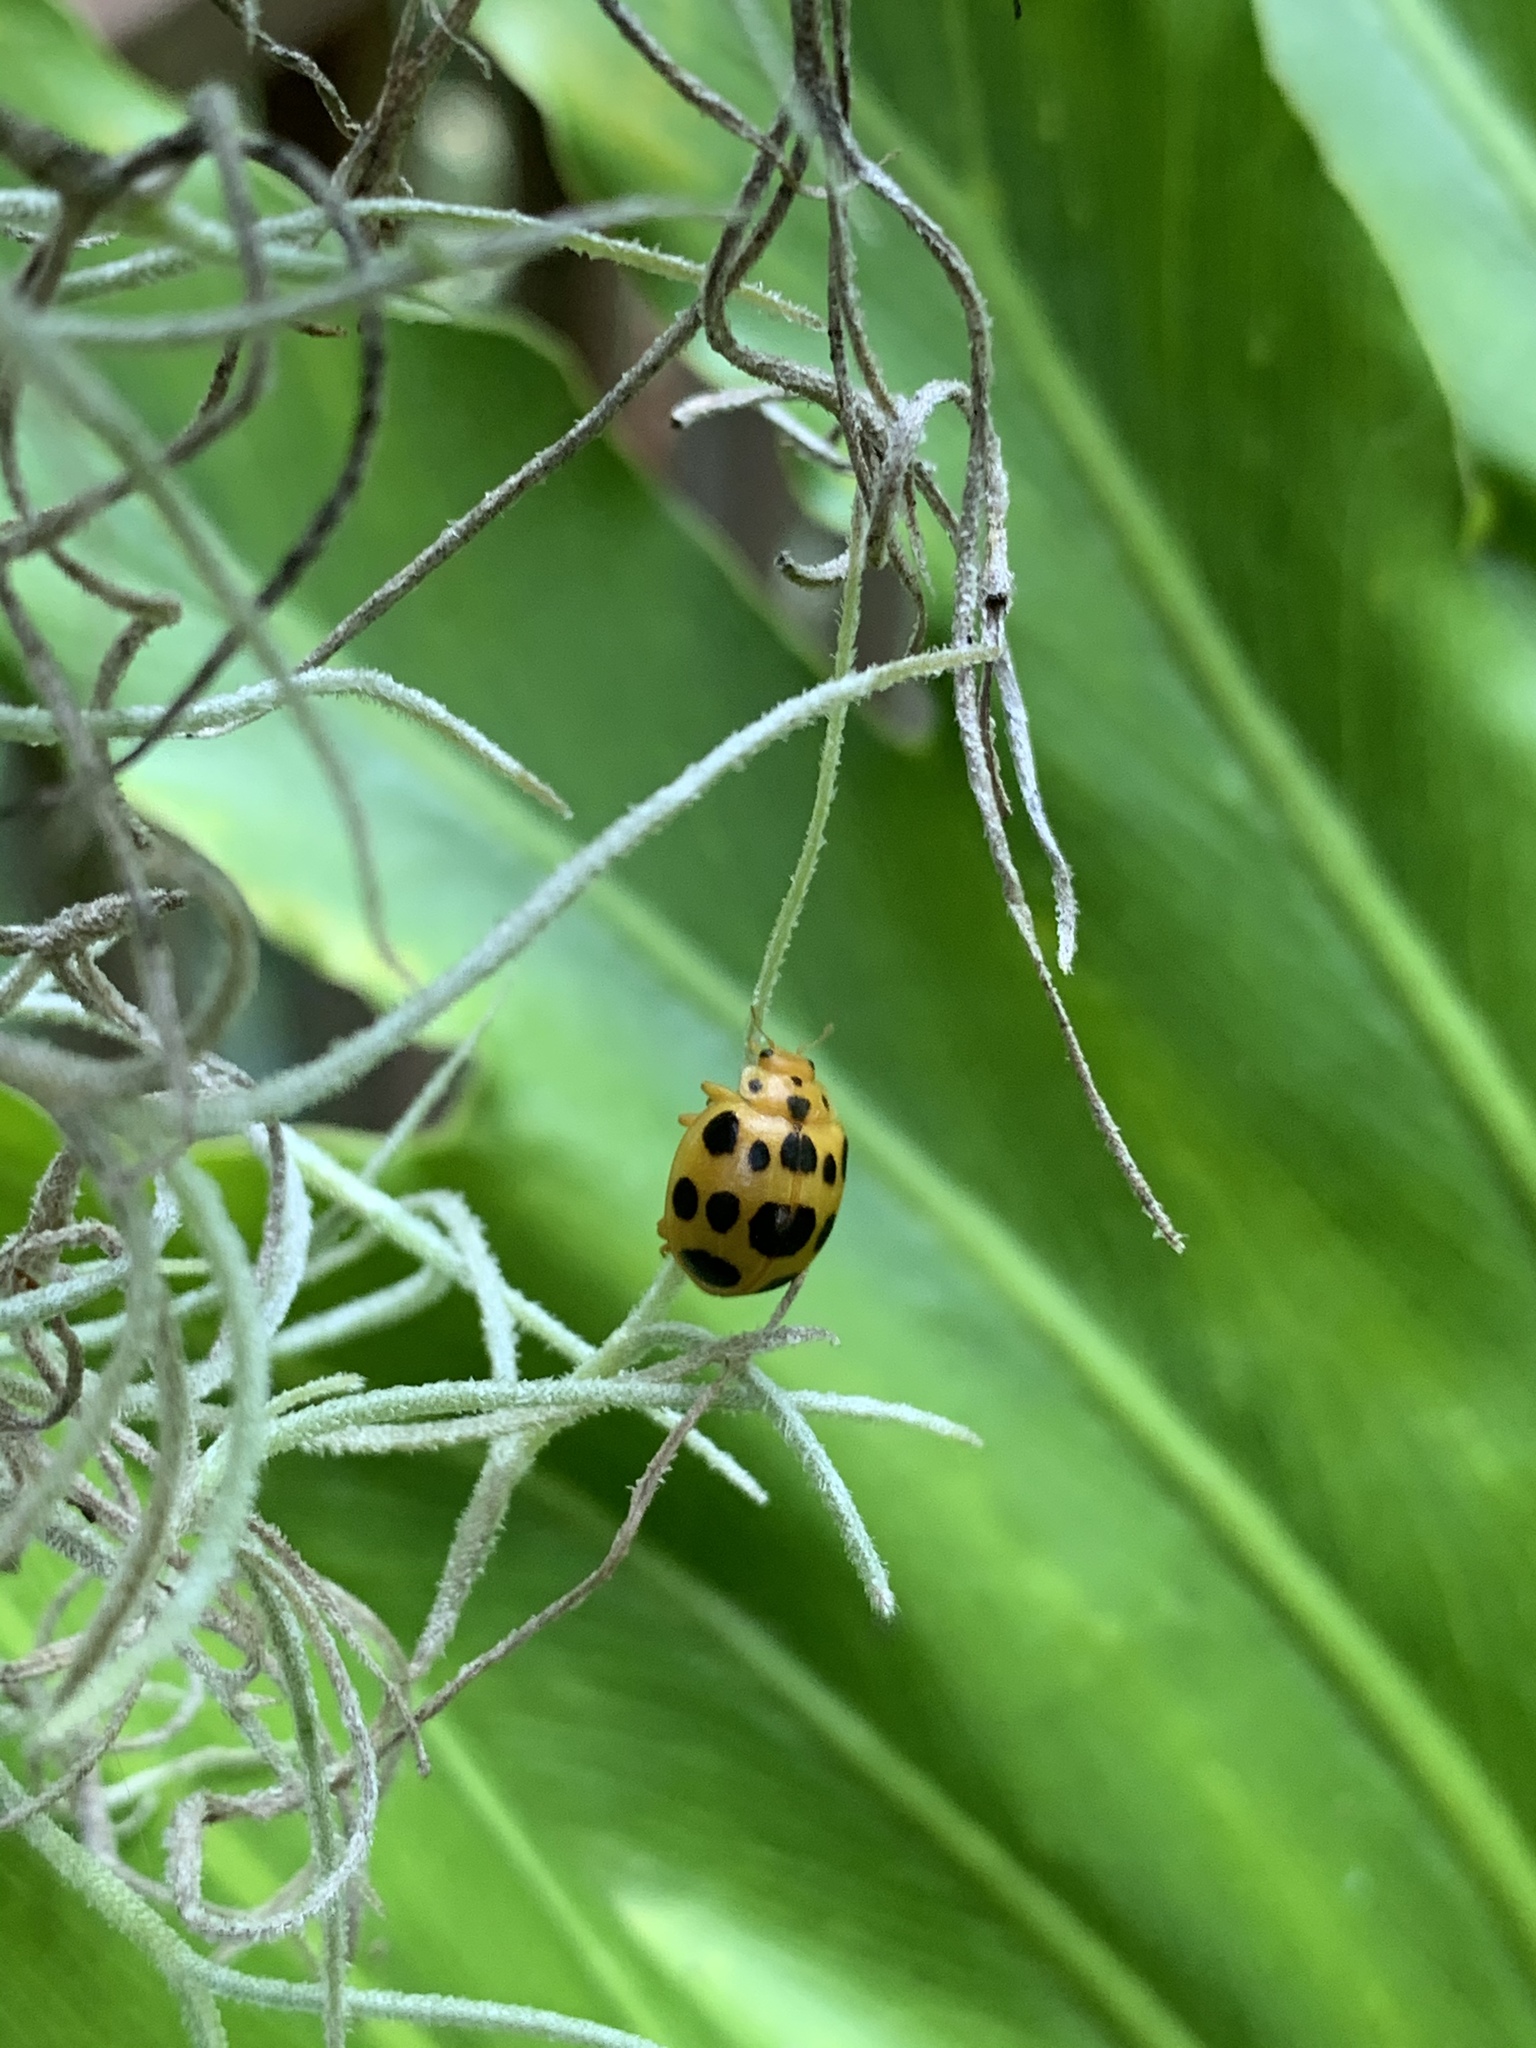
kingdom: Animalia
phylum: Arthropoda
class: Insecta
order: Coleoptera
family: Coccinellidae
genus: Epilachna
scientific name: Epilachna borealis
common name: Squash beetle
